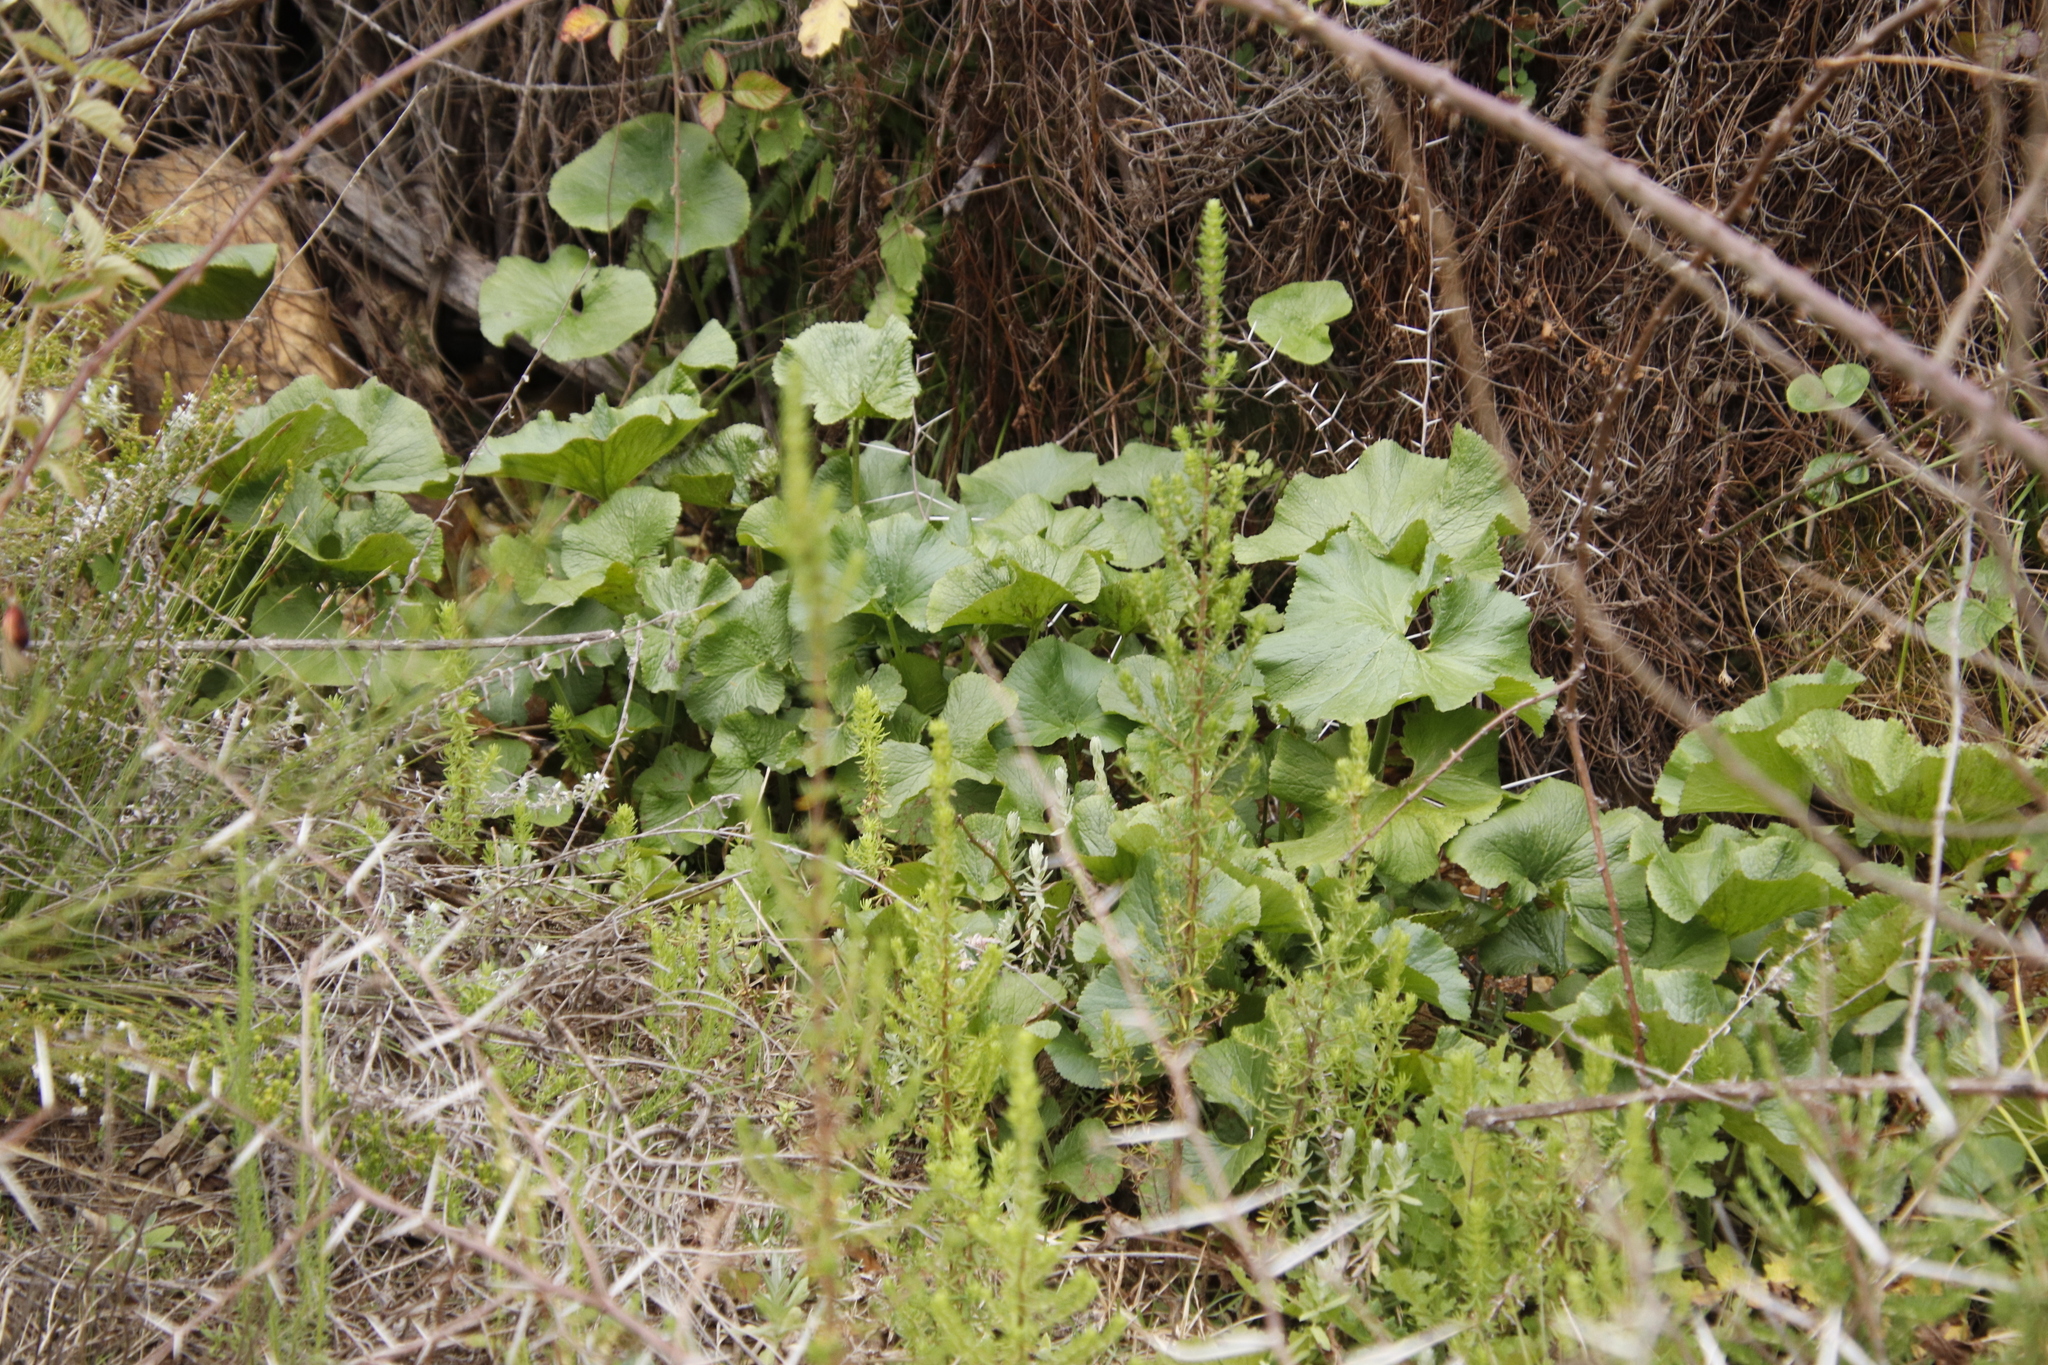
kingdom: Plantae
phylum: Tracheophyta
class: Magnoliopsida
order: Gunnerales
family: Gunneraceae
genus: Gunnera
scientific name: Gunnera perpensa
